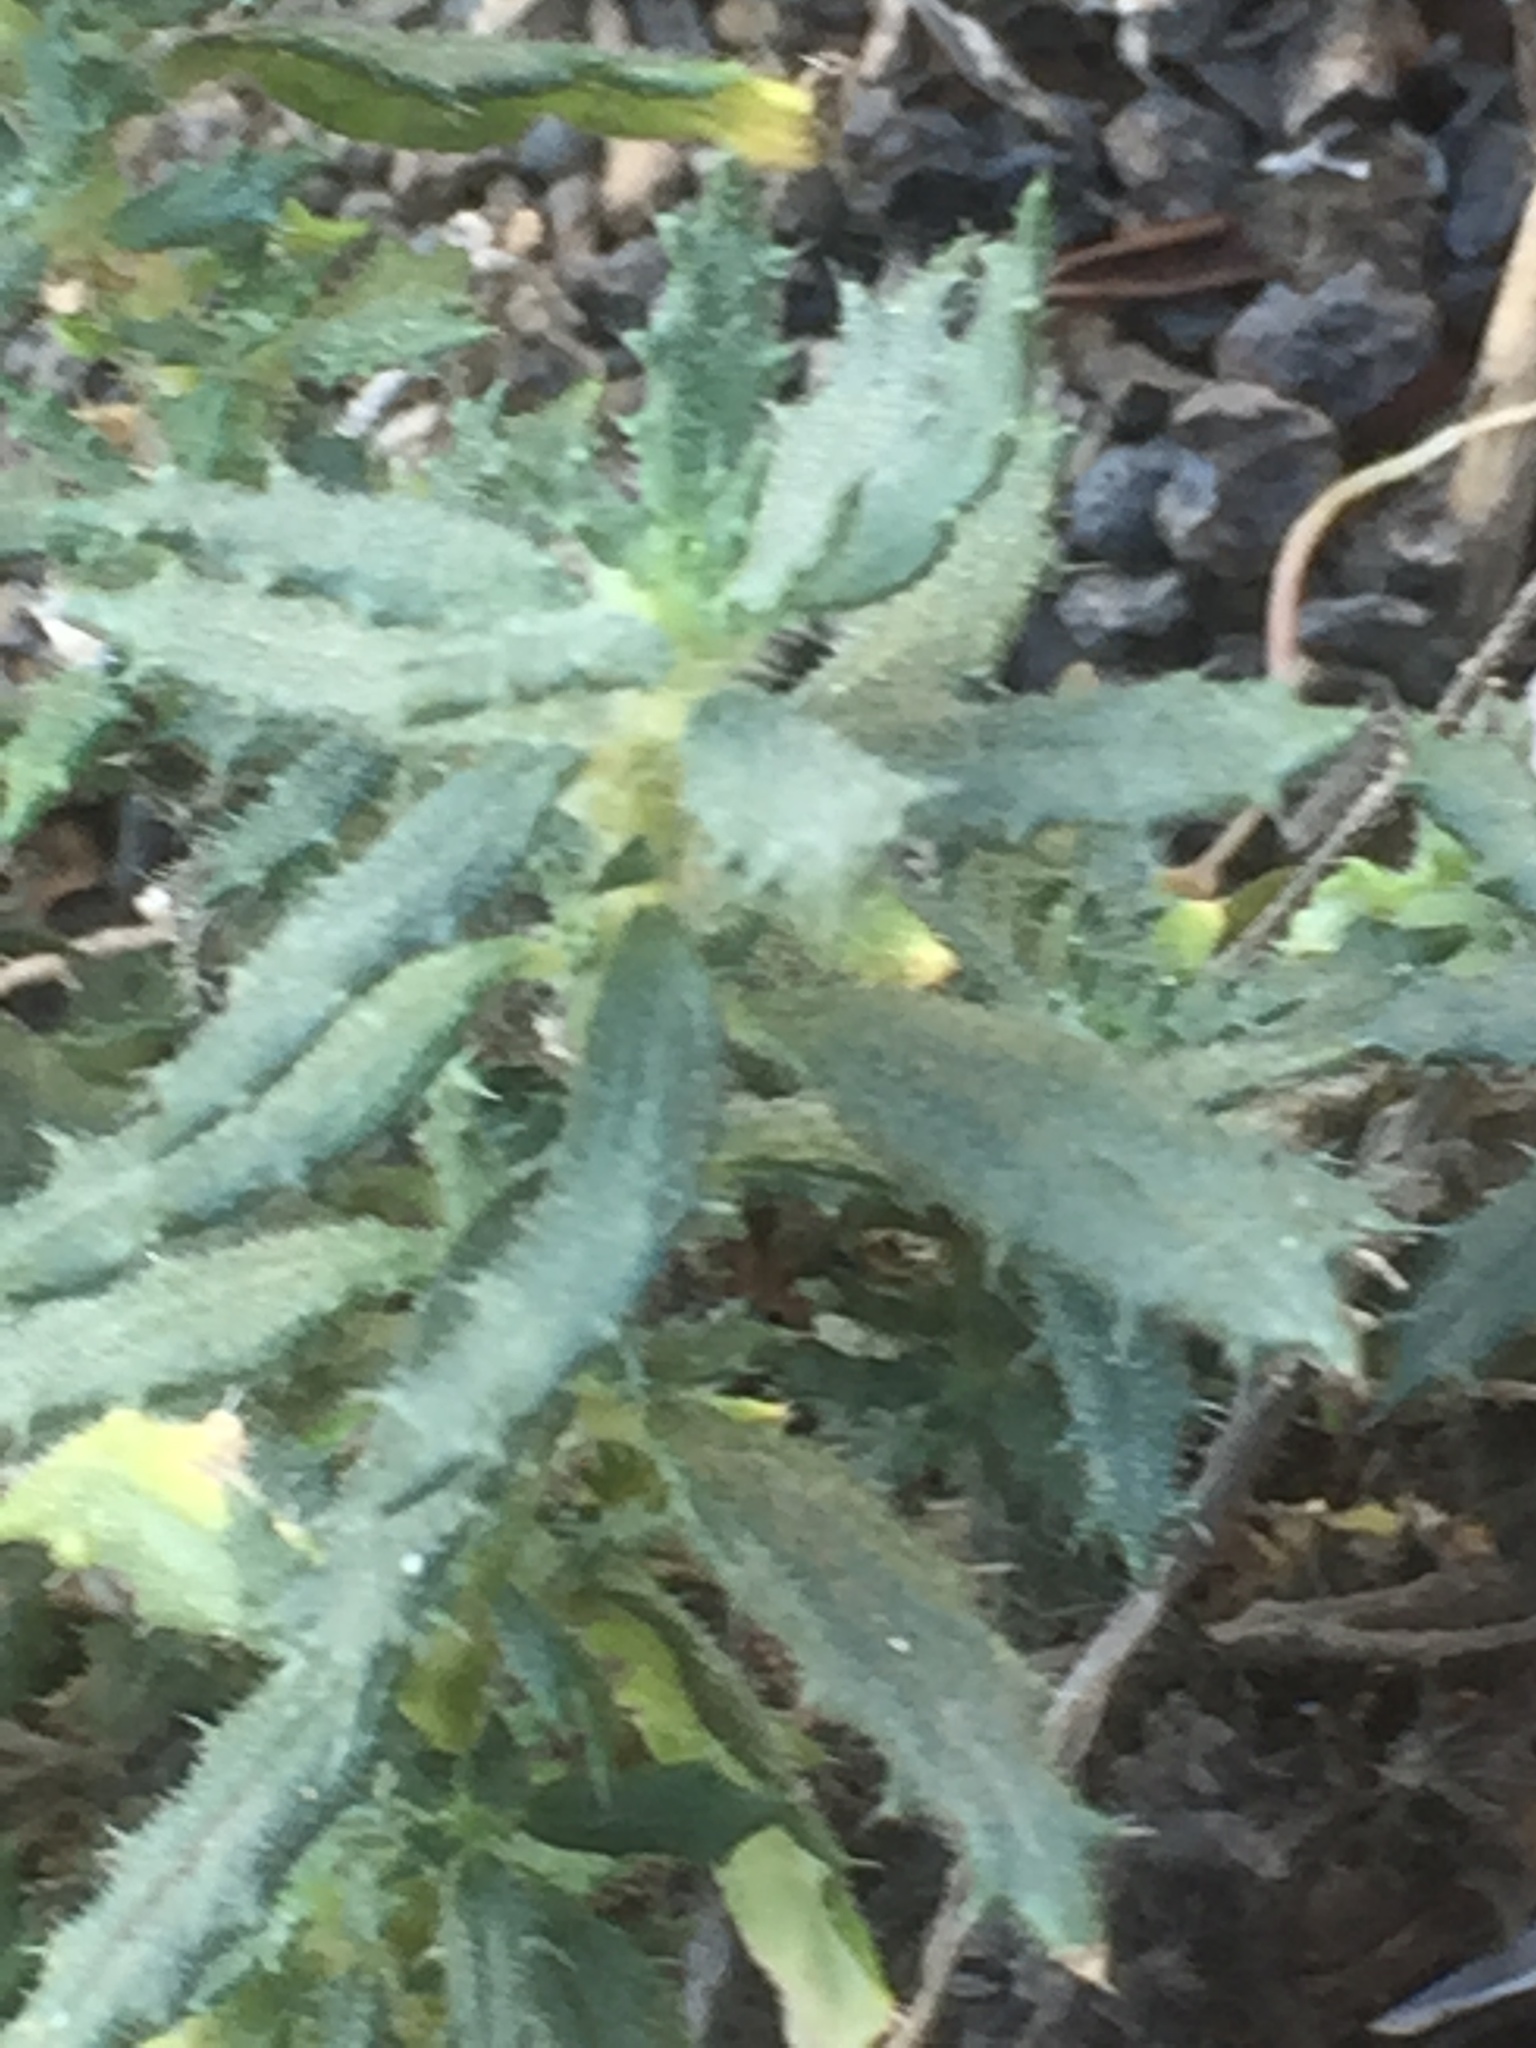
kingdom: Plantae
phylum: Tracheophyta
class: Magnoliopsida
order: Rosales
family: Urticaceae
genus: Forsskaolea
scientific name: Forsskaolea angustifolia
